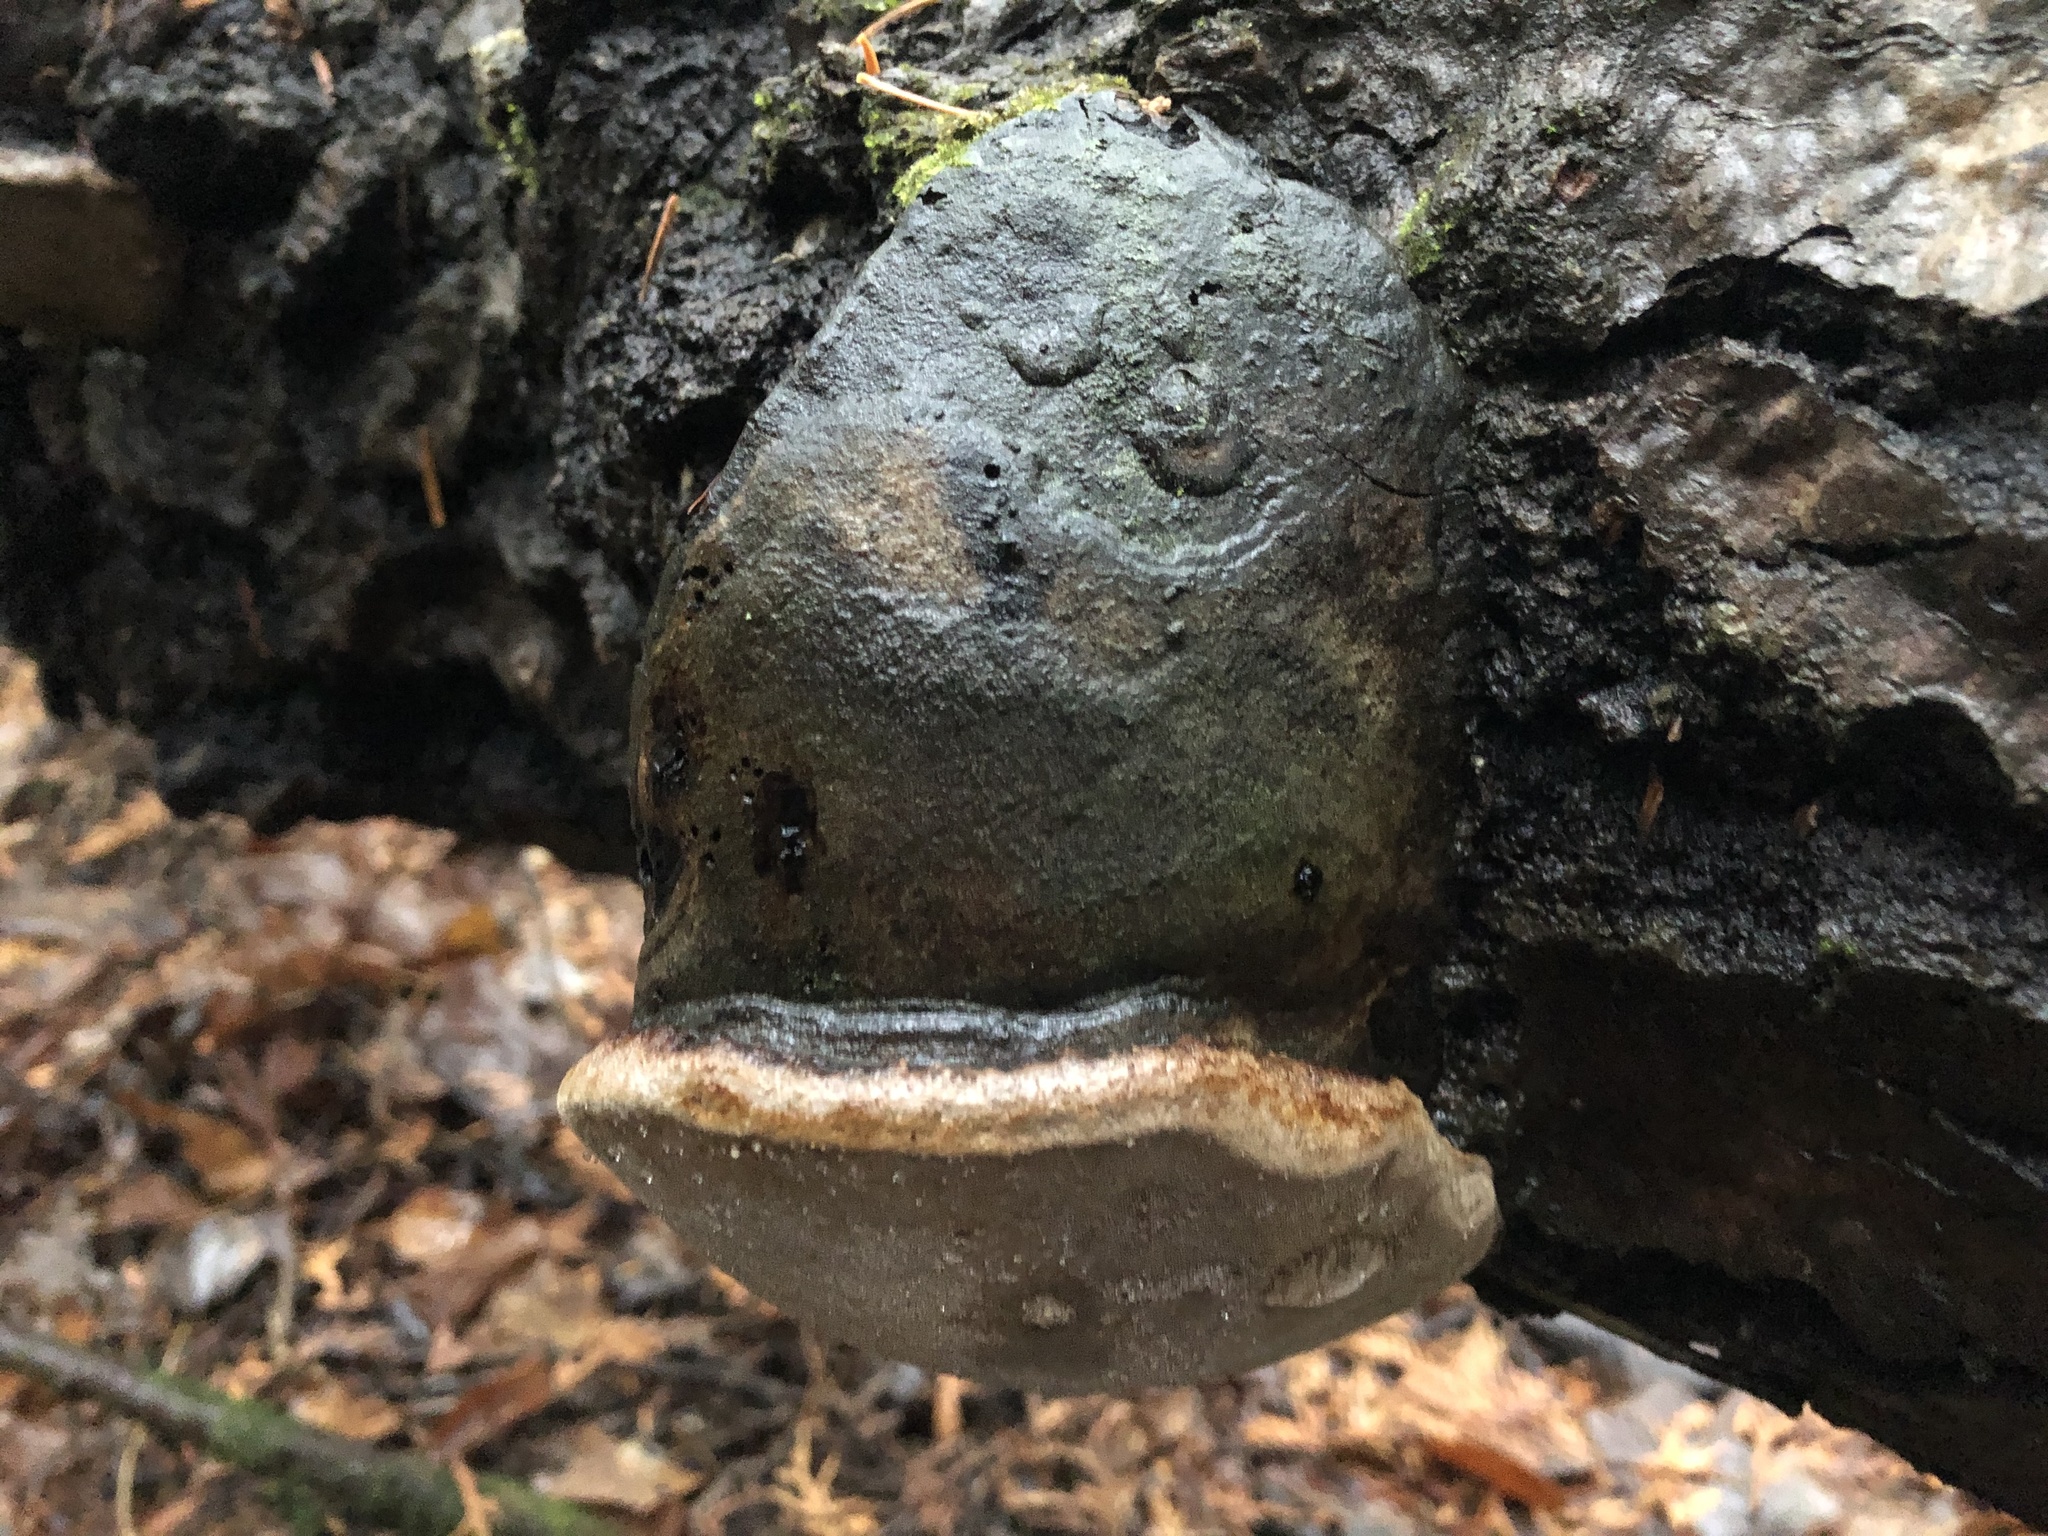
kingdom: Fungi
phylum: Basidiomycota
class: Agaricomycetes
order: Hymenochaetales
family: Hymenochaetaceae
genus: Phellinus
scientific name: Phellinus tremulae
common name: Aspen bracket
